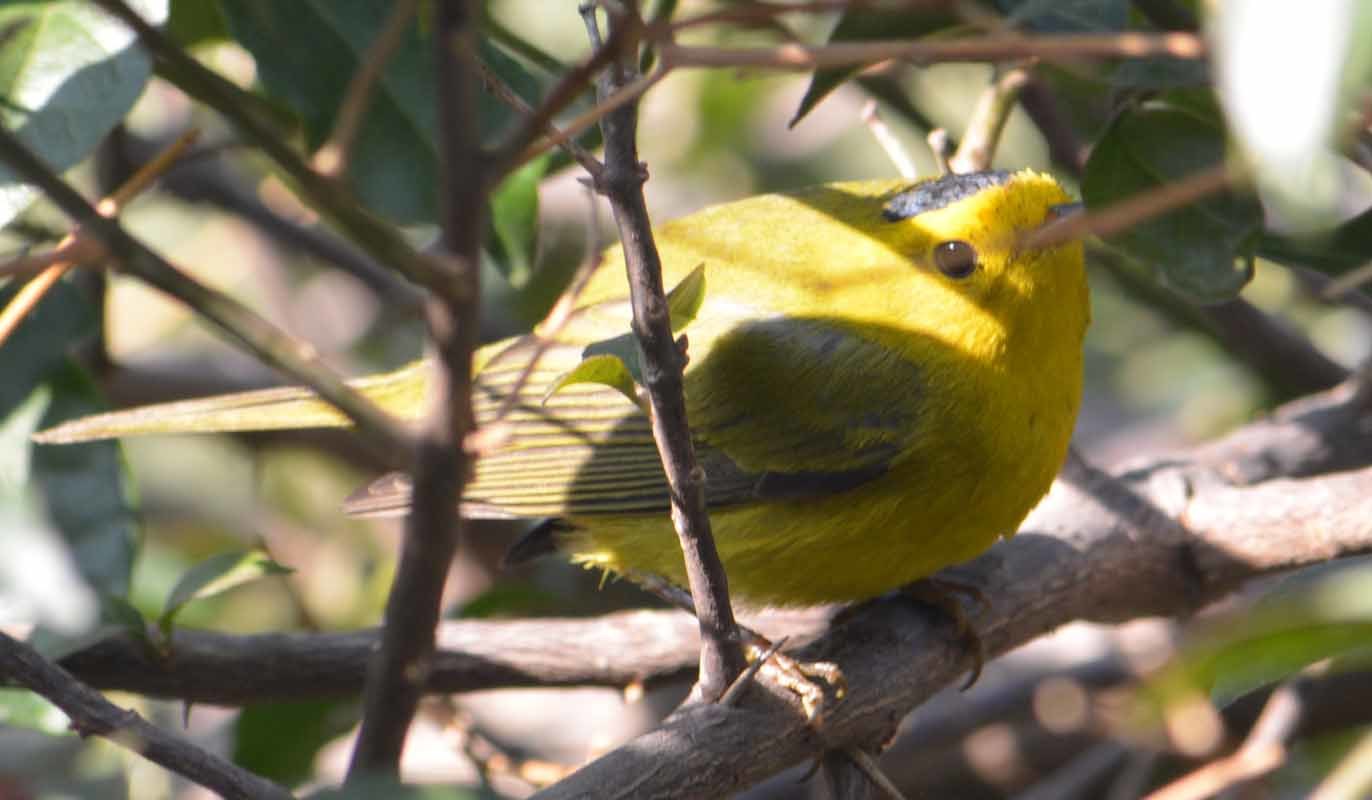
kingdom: Animalia
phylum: Chordata
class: Aves
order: Passeriformes
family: Parulidae
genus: Cardellina
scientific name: Cardellina pusilla
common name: Wilson's warbler
